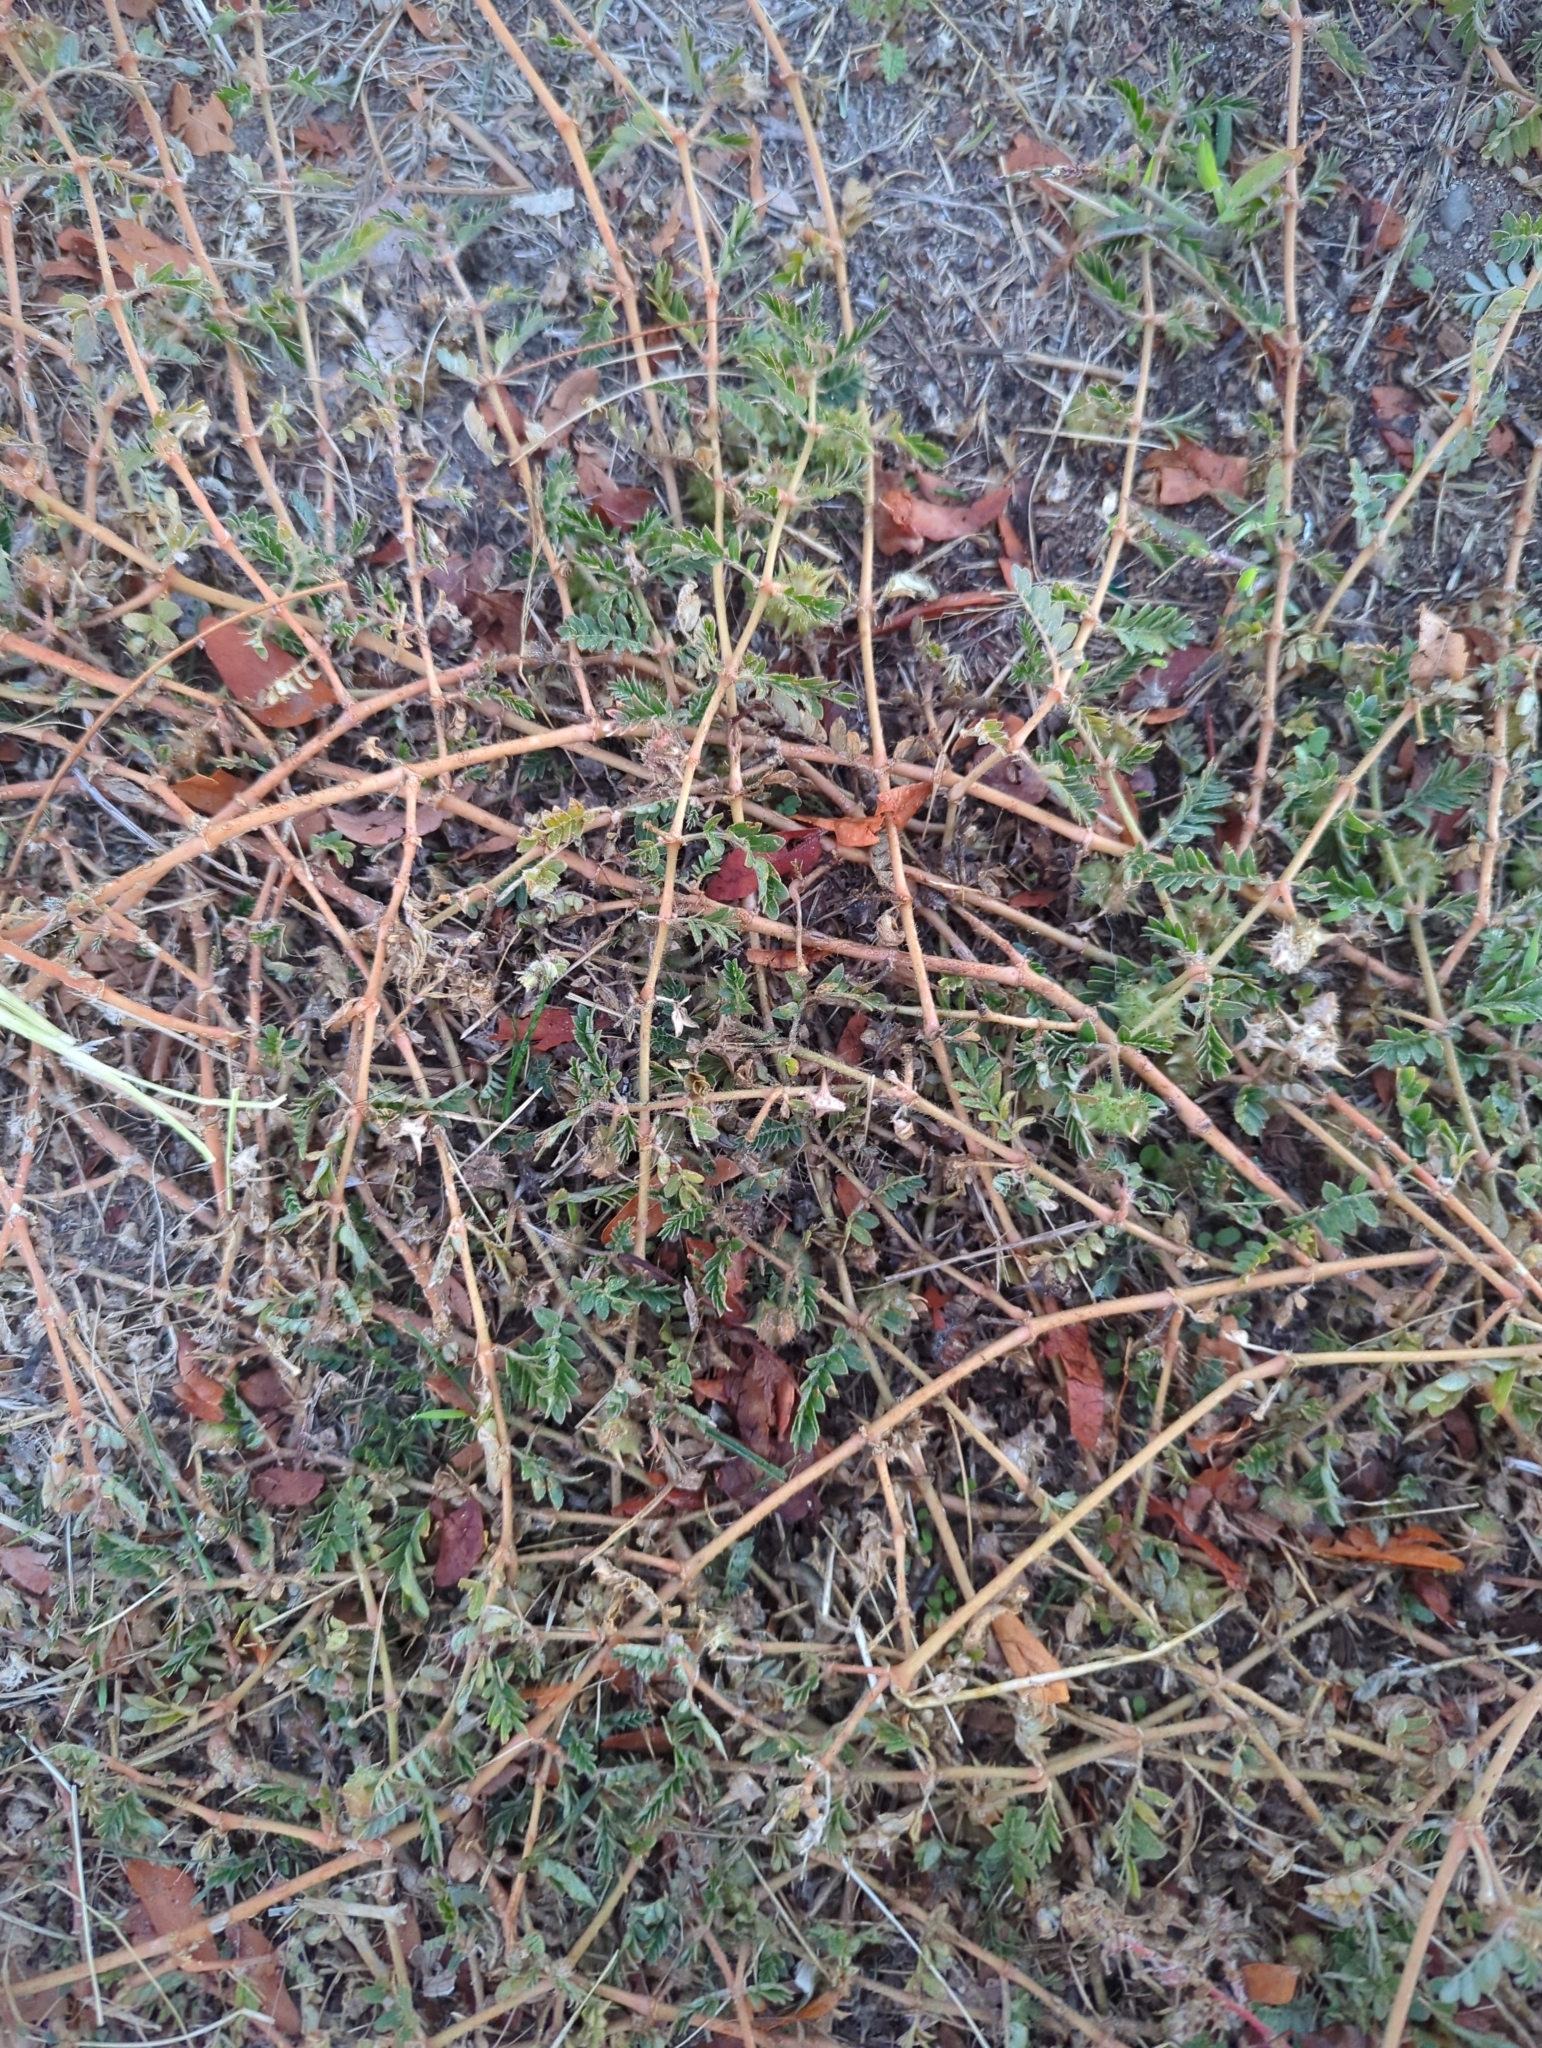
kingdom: Plantae
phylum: Tracheophyta
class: Magnoliopsida
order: Zygophyllales
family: Zygophyllaceae
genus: Tribulus
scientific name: Tribulus terrestris
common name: Puncturevine
